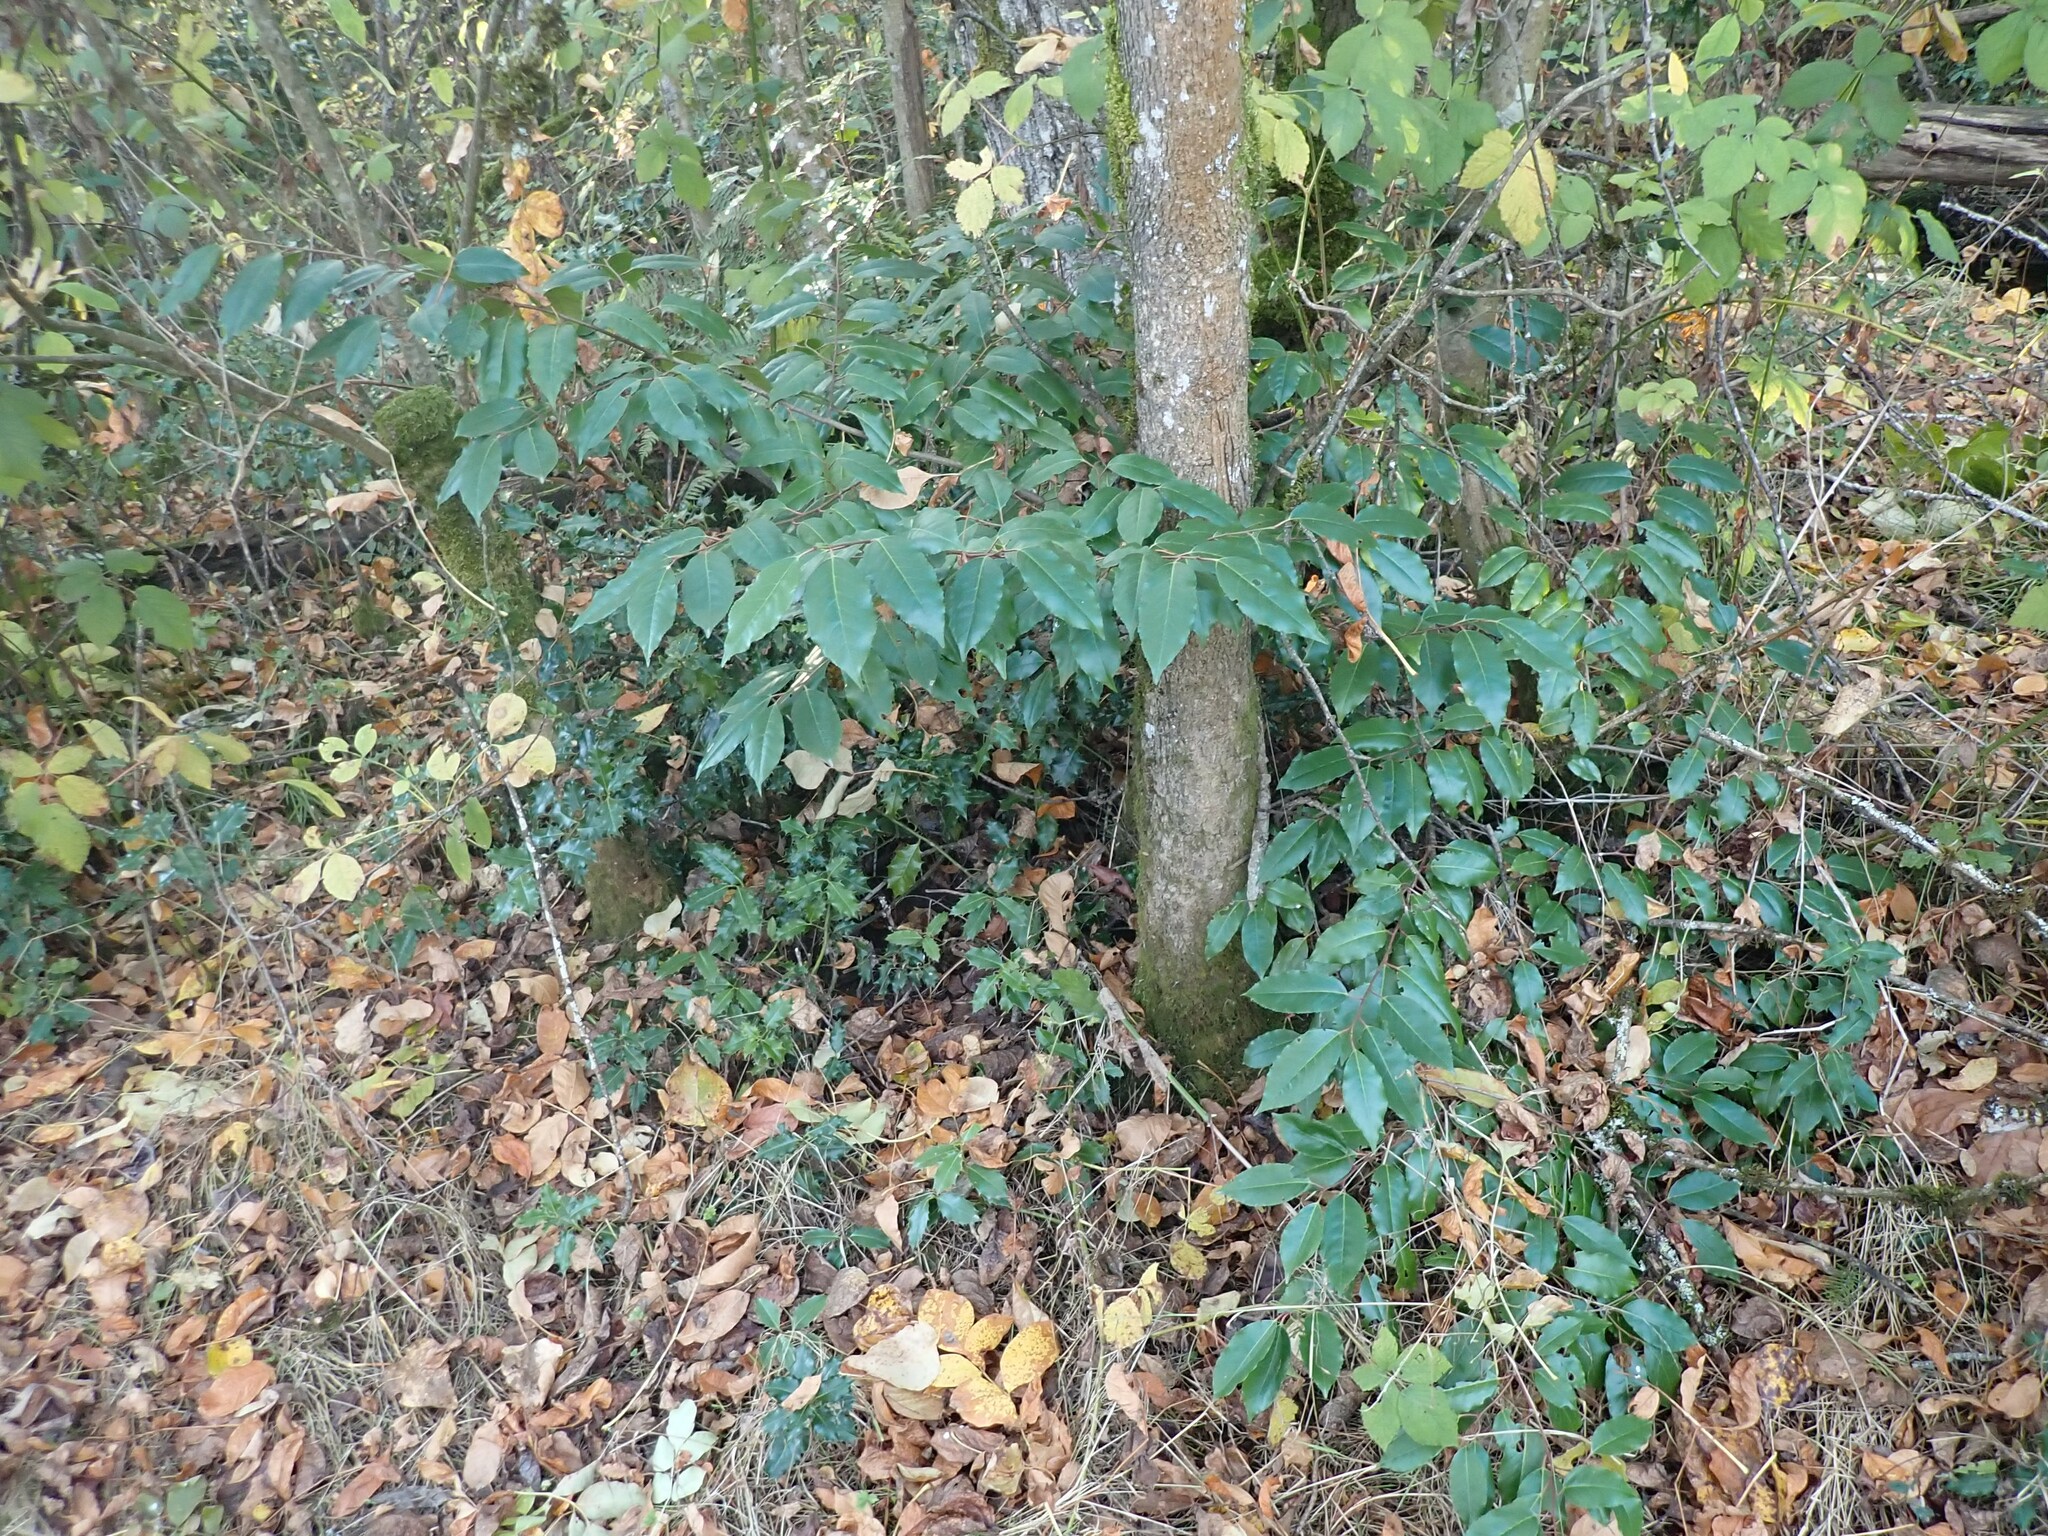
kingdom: Plantae
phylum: Tracheophyta
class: Magnoliopsida
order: Rosales
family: Rosaceae
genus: Prunus
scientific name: Prunus lusitanica
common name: Portugal laurel
